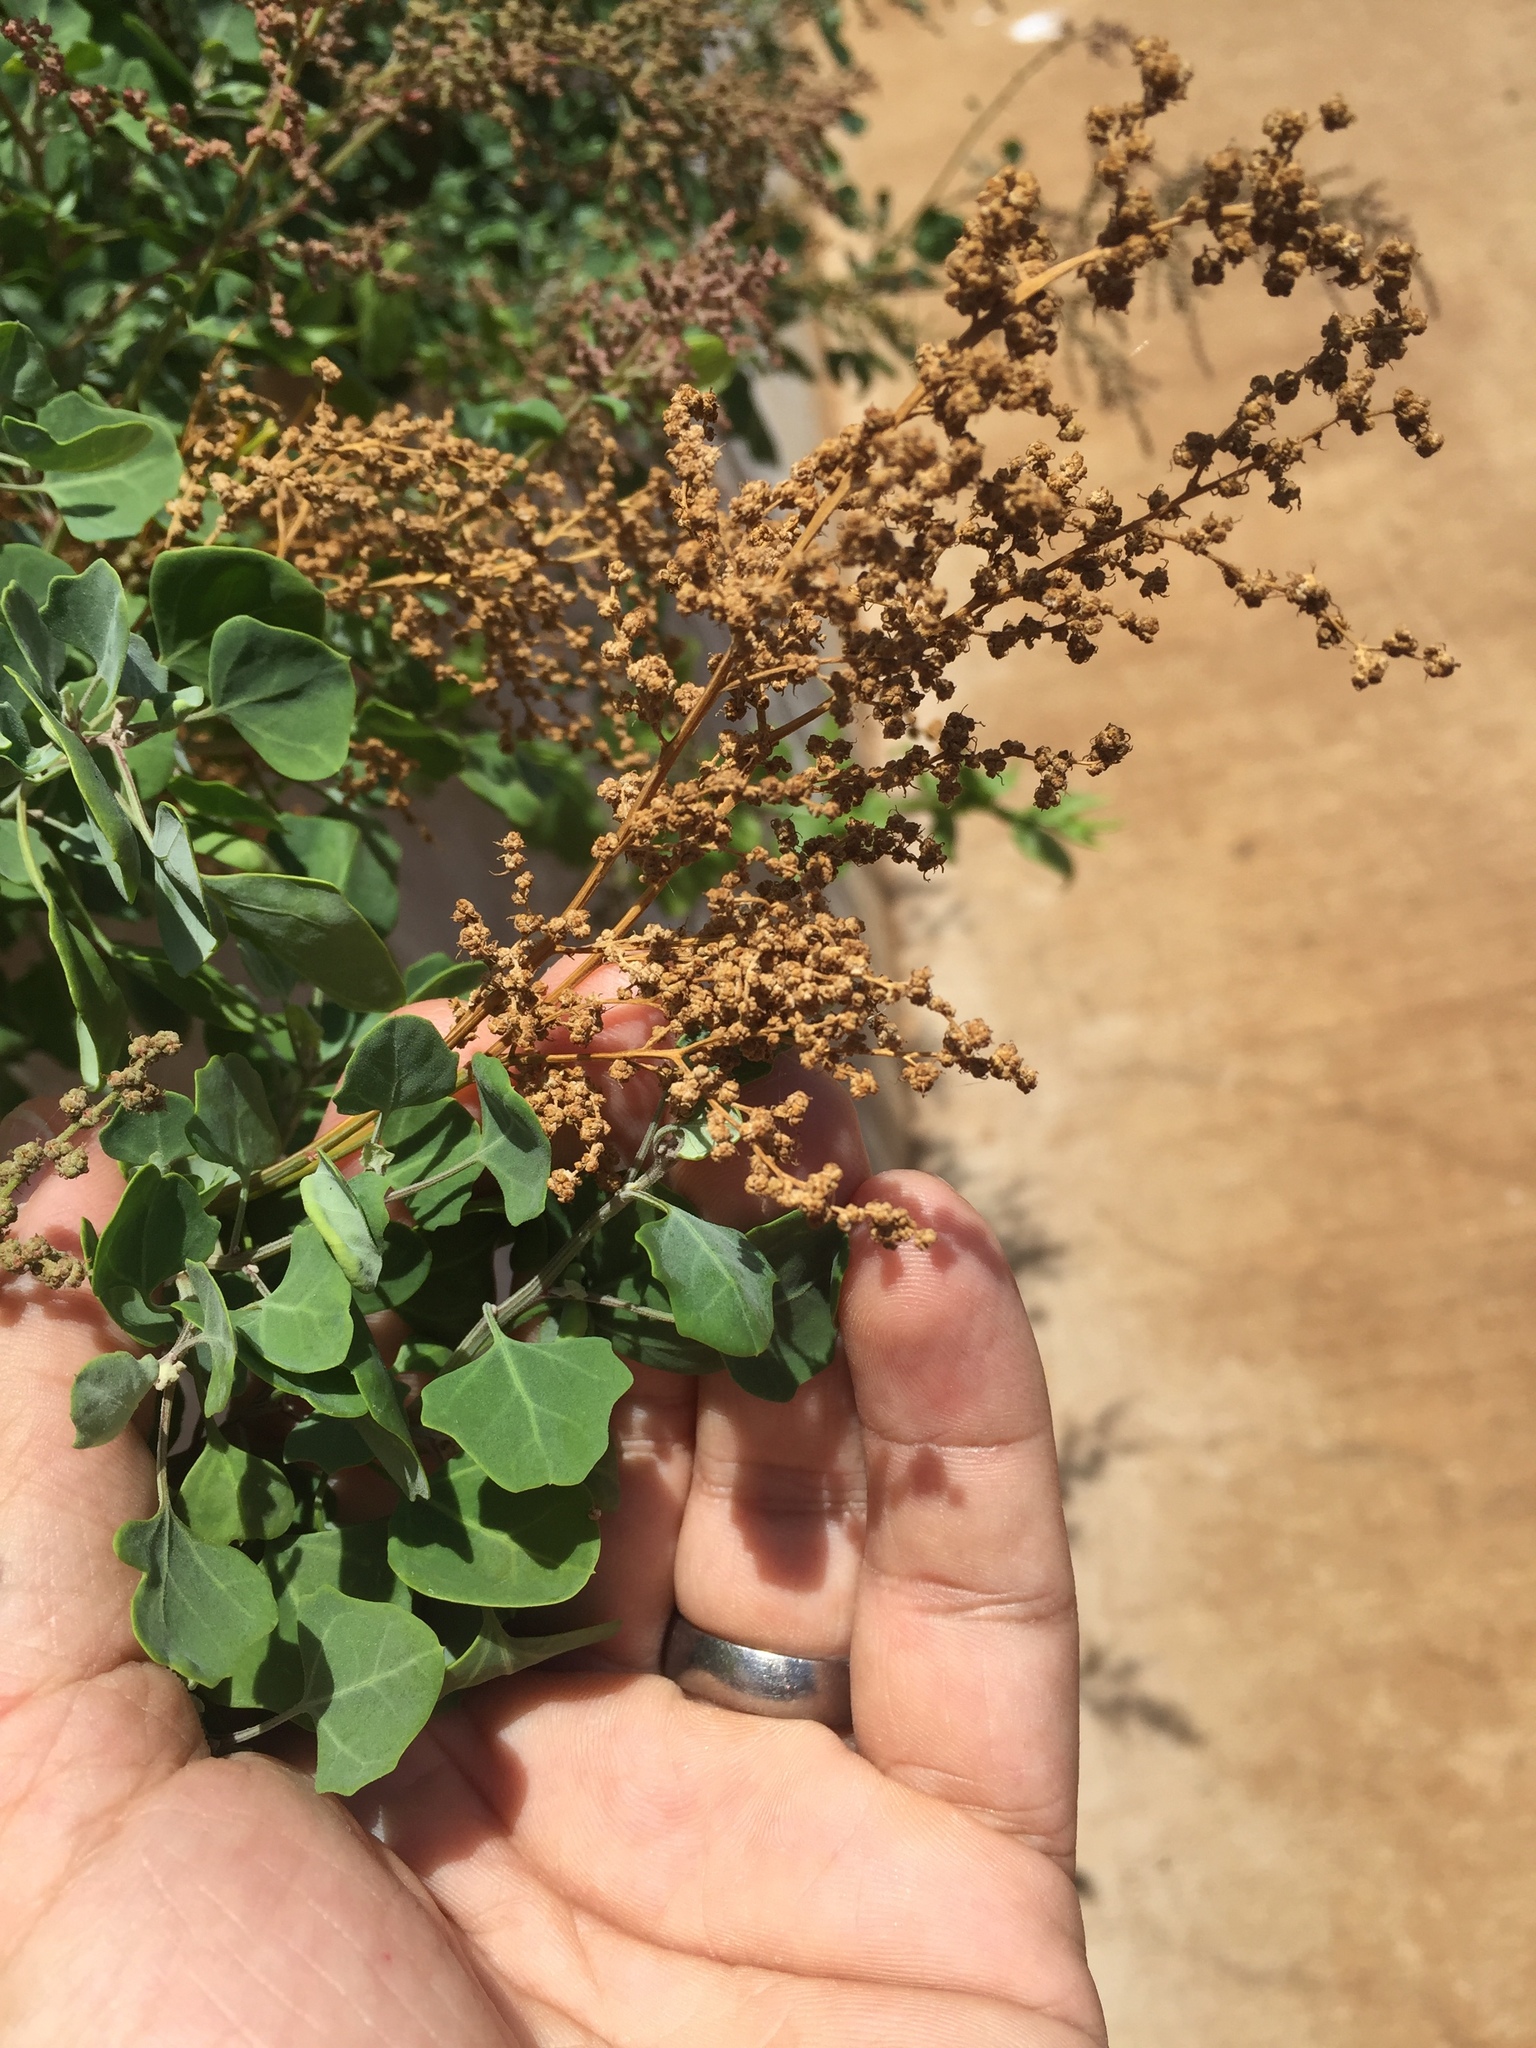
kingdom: Plantae
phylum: Tracheophyta
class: Magnoliopsida
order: Caryophyllales
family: Amaranthaceae
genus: Chenopodium
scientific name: Chenopodium oahuense
